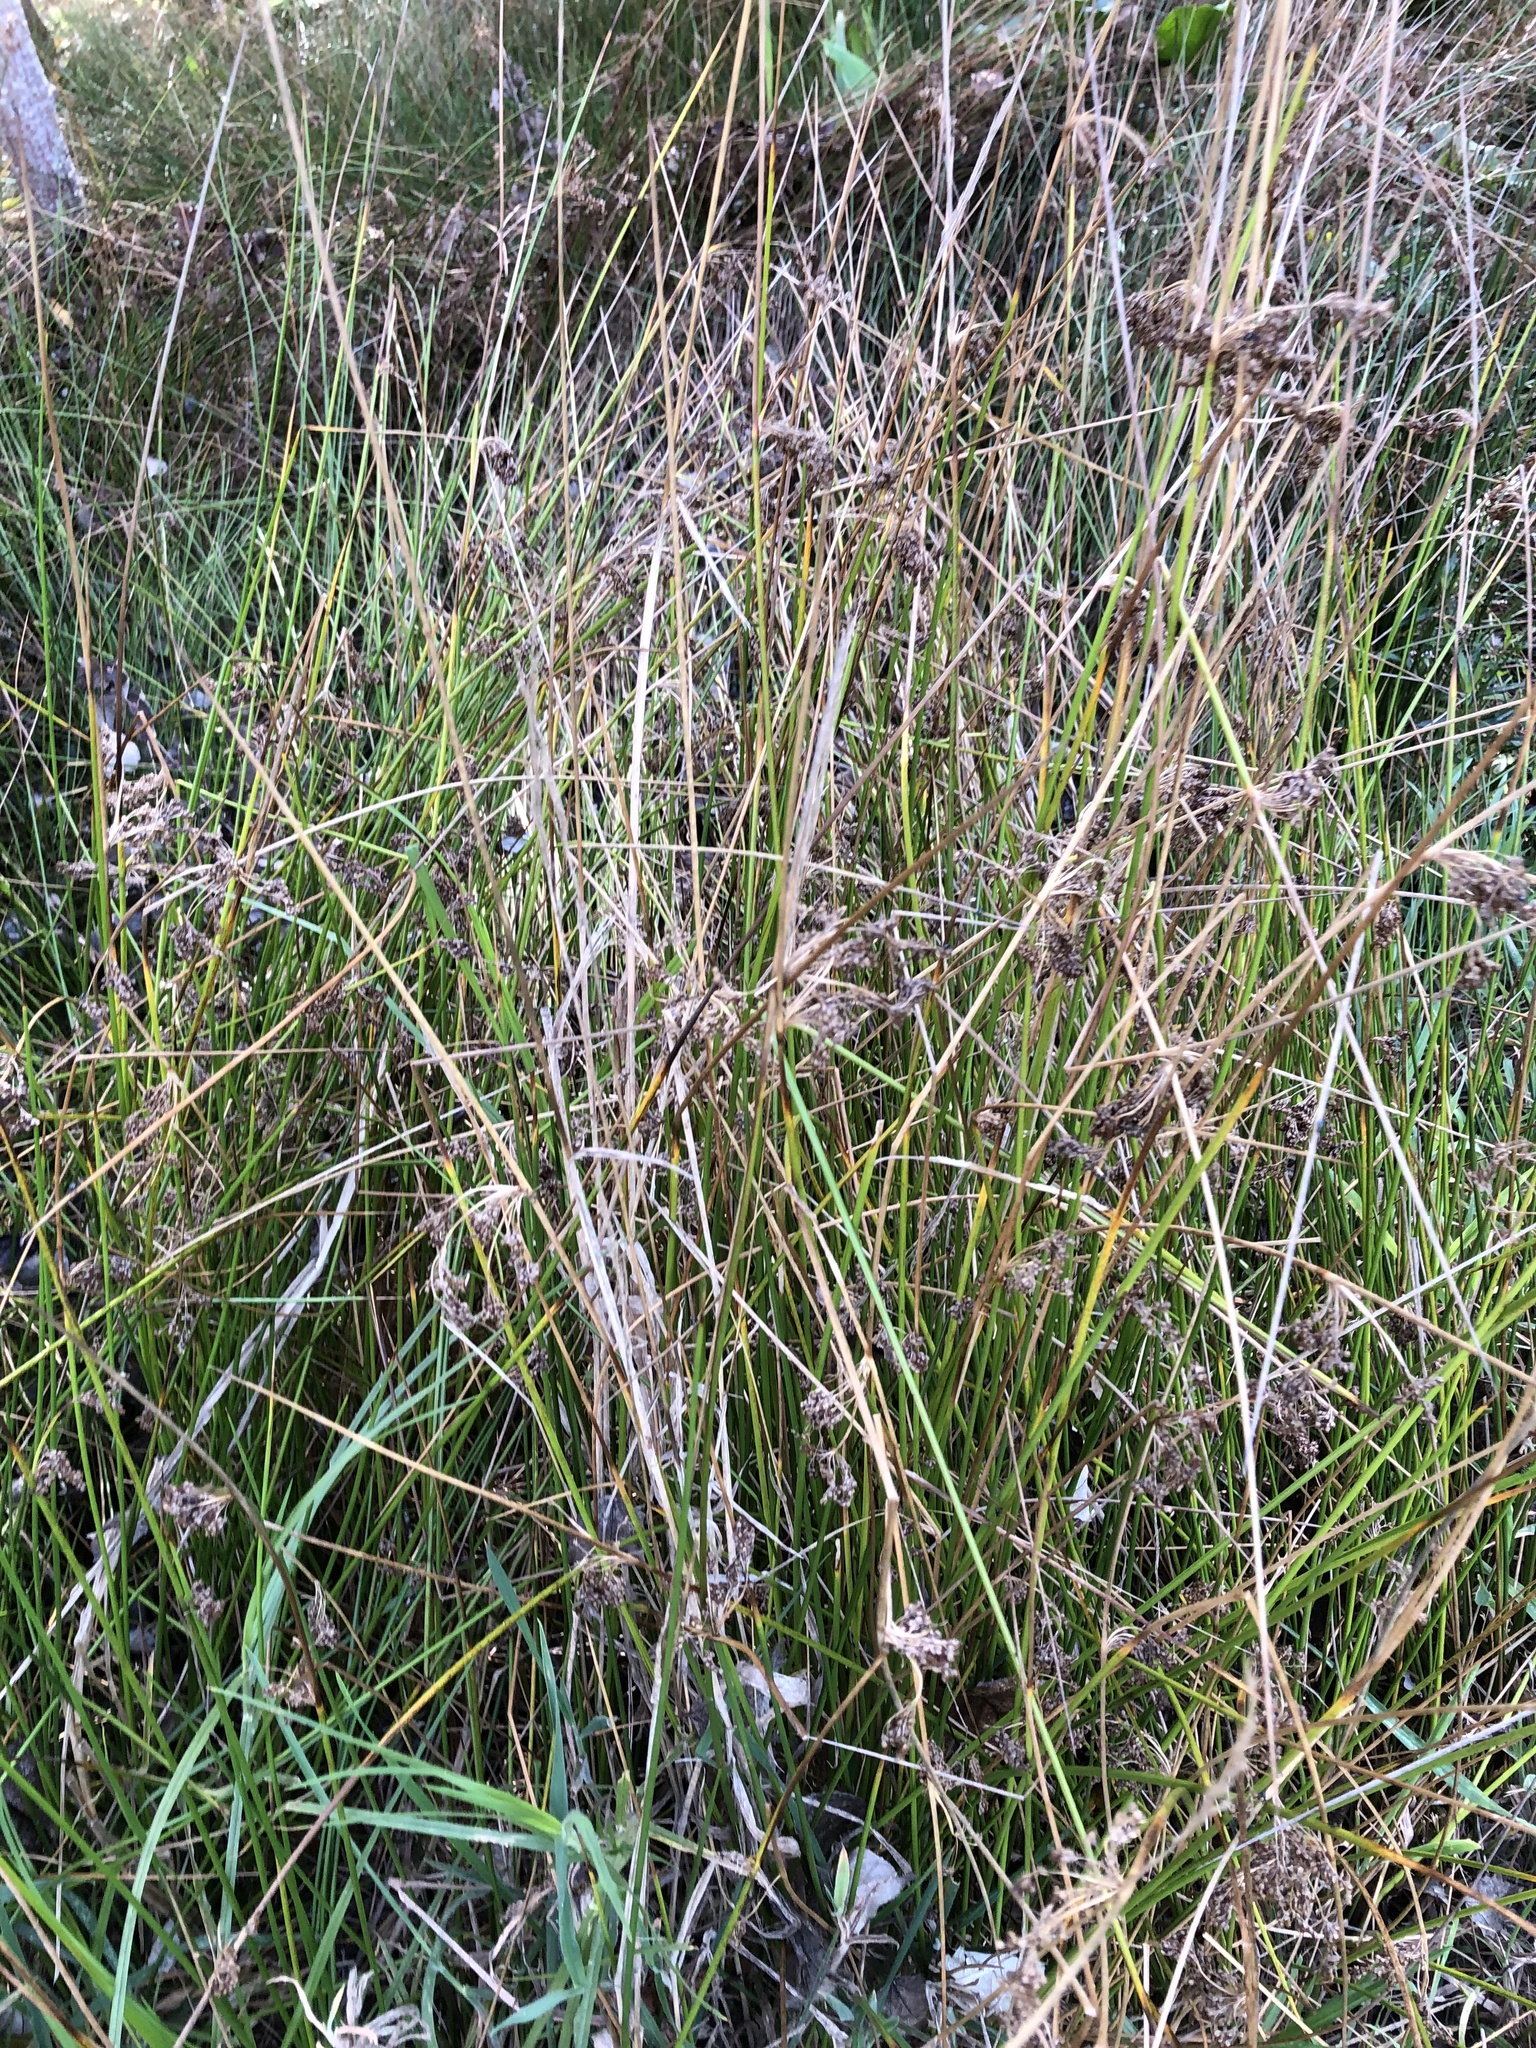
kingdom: Plantae
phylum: Tracheophyta
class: Liliopsida
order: Poales
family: Juncaceae
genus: Juncus
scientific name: Juncus effusus
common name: Soft rush
